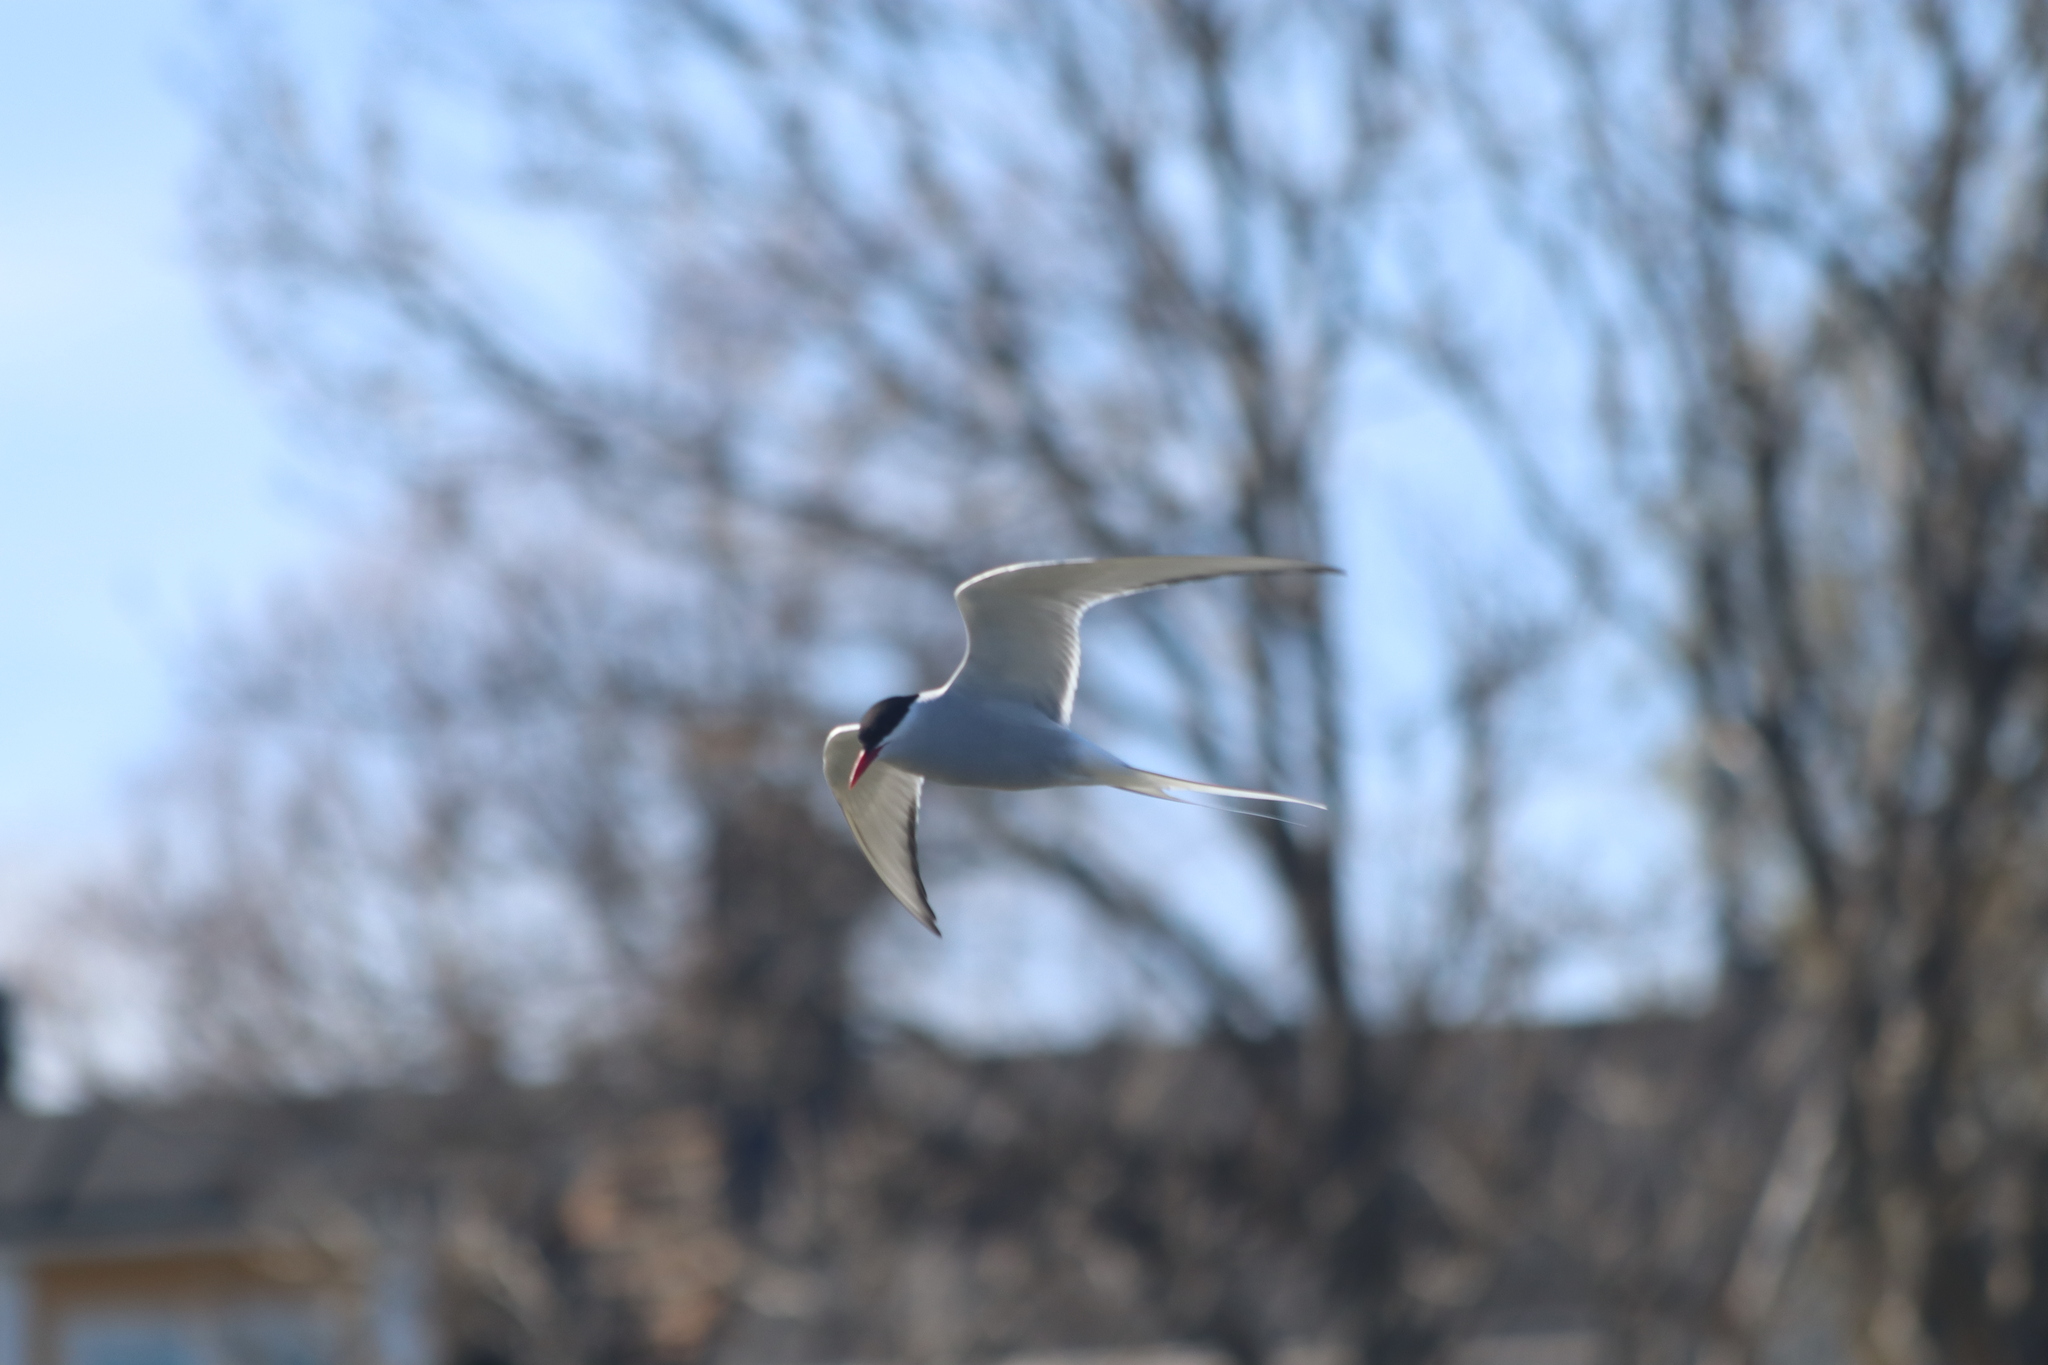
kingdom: Animalia
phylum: Chordata
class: Aves
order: Charadriiformes
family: Laridae
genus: Sterna
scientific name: Sterna paradisaea
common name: Arctic tern
